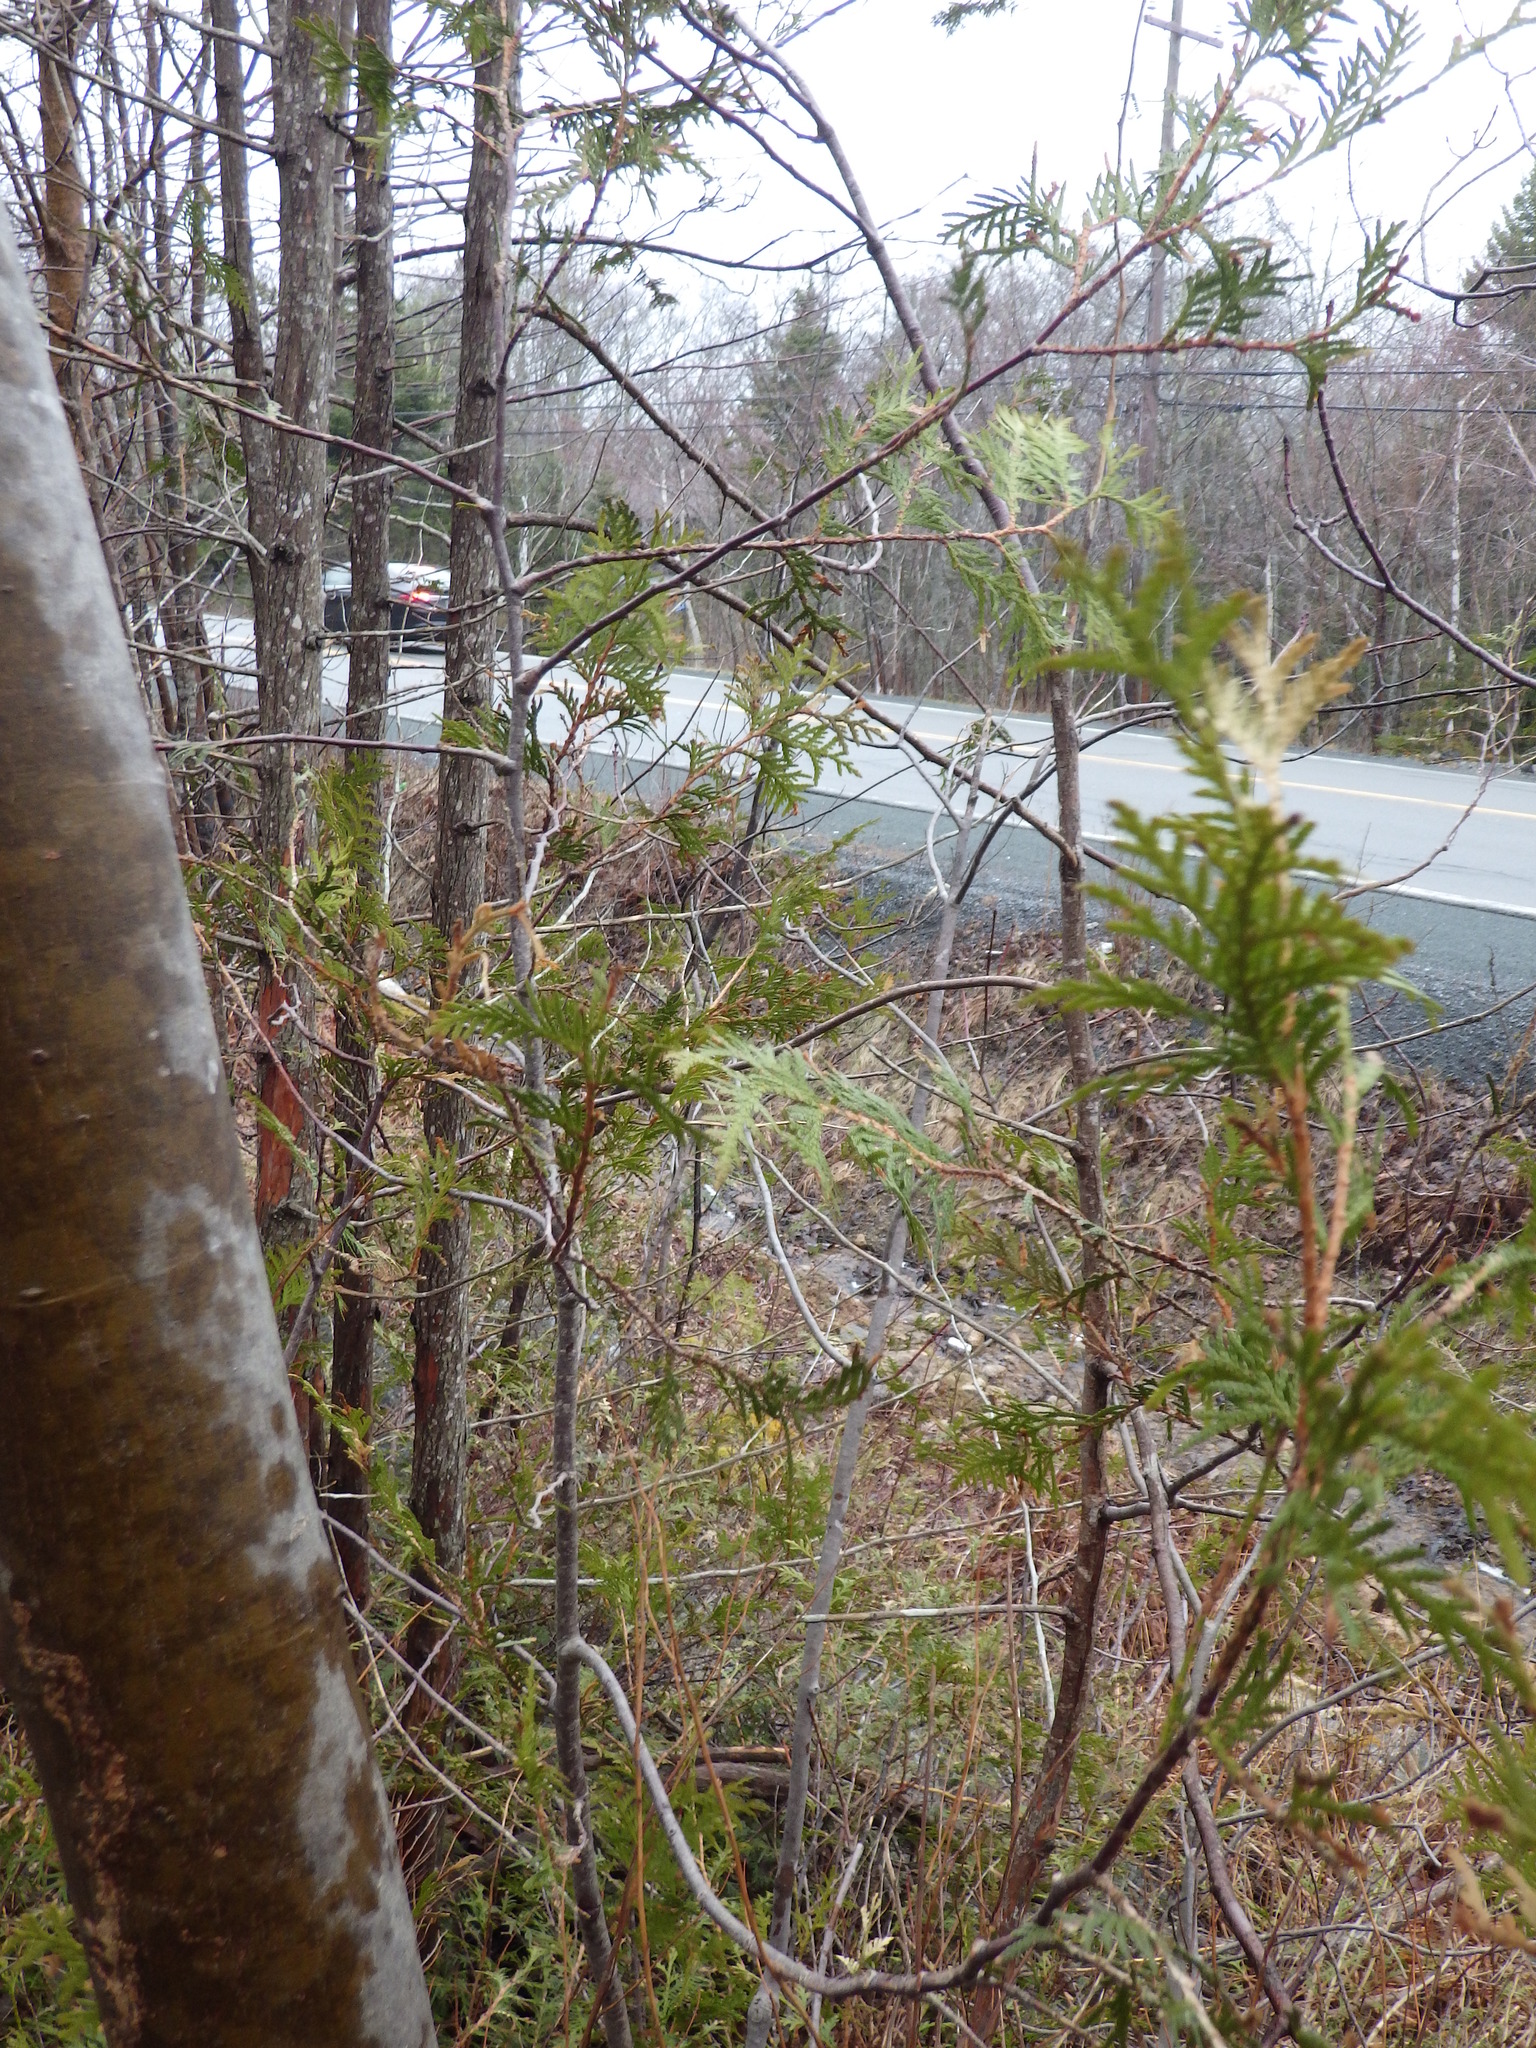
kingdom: Plantae
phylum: Tracheophyta
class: Pinopsida
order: Pinales
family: Cupressaceae
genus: Thuja
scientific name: Thuja occidentalis
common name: Northern white-cedar
